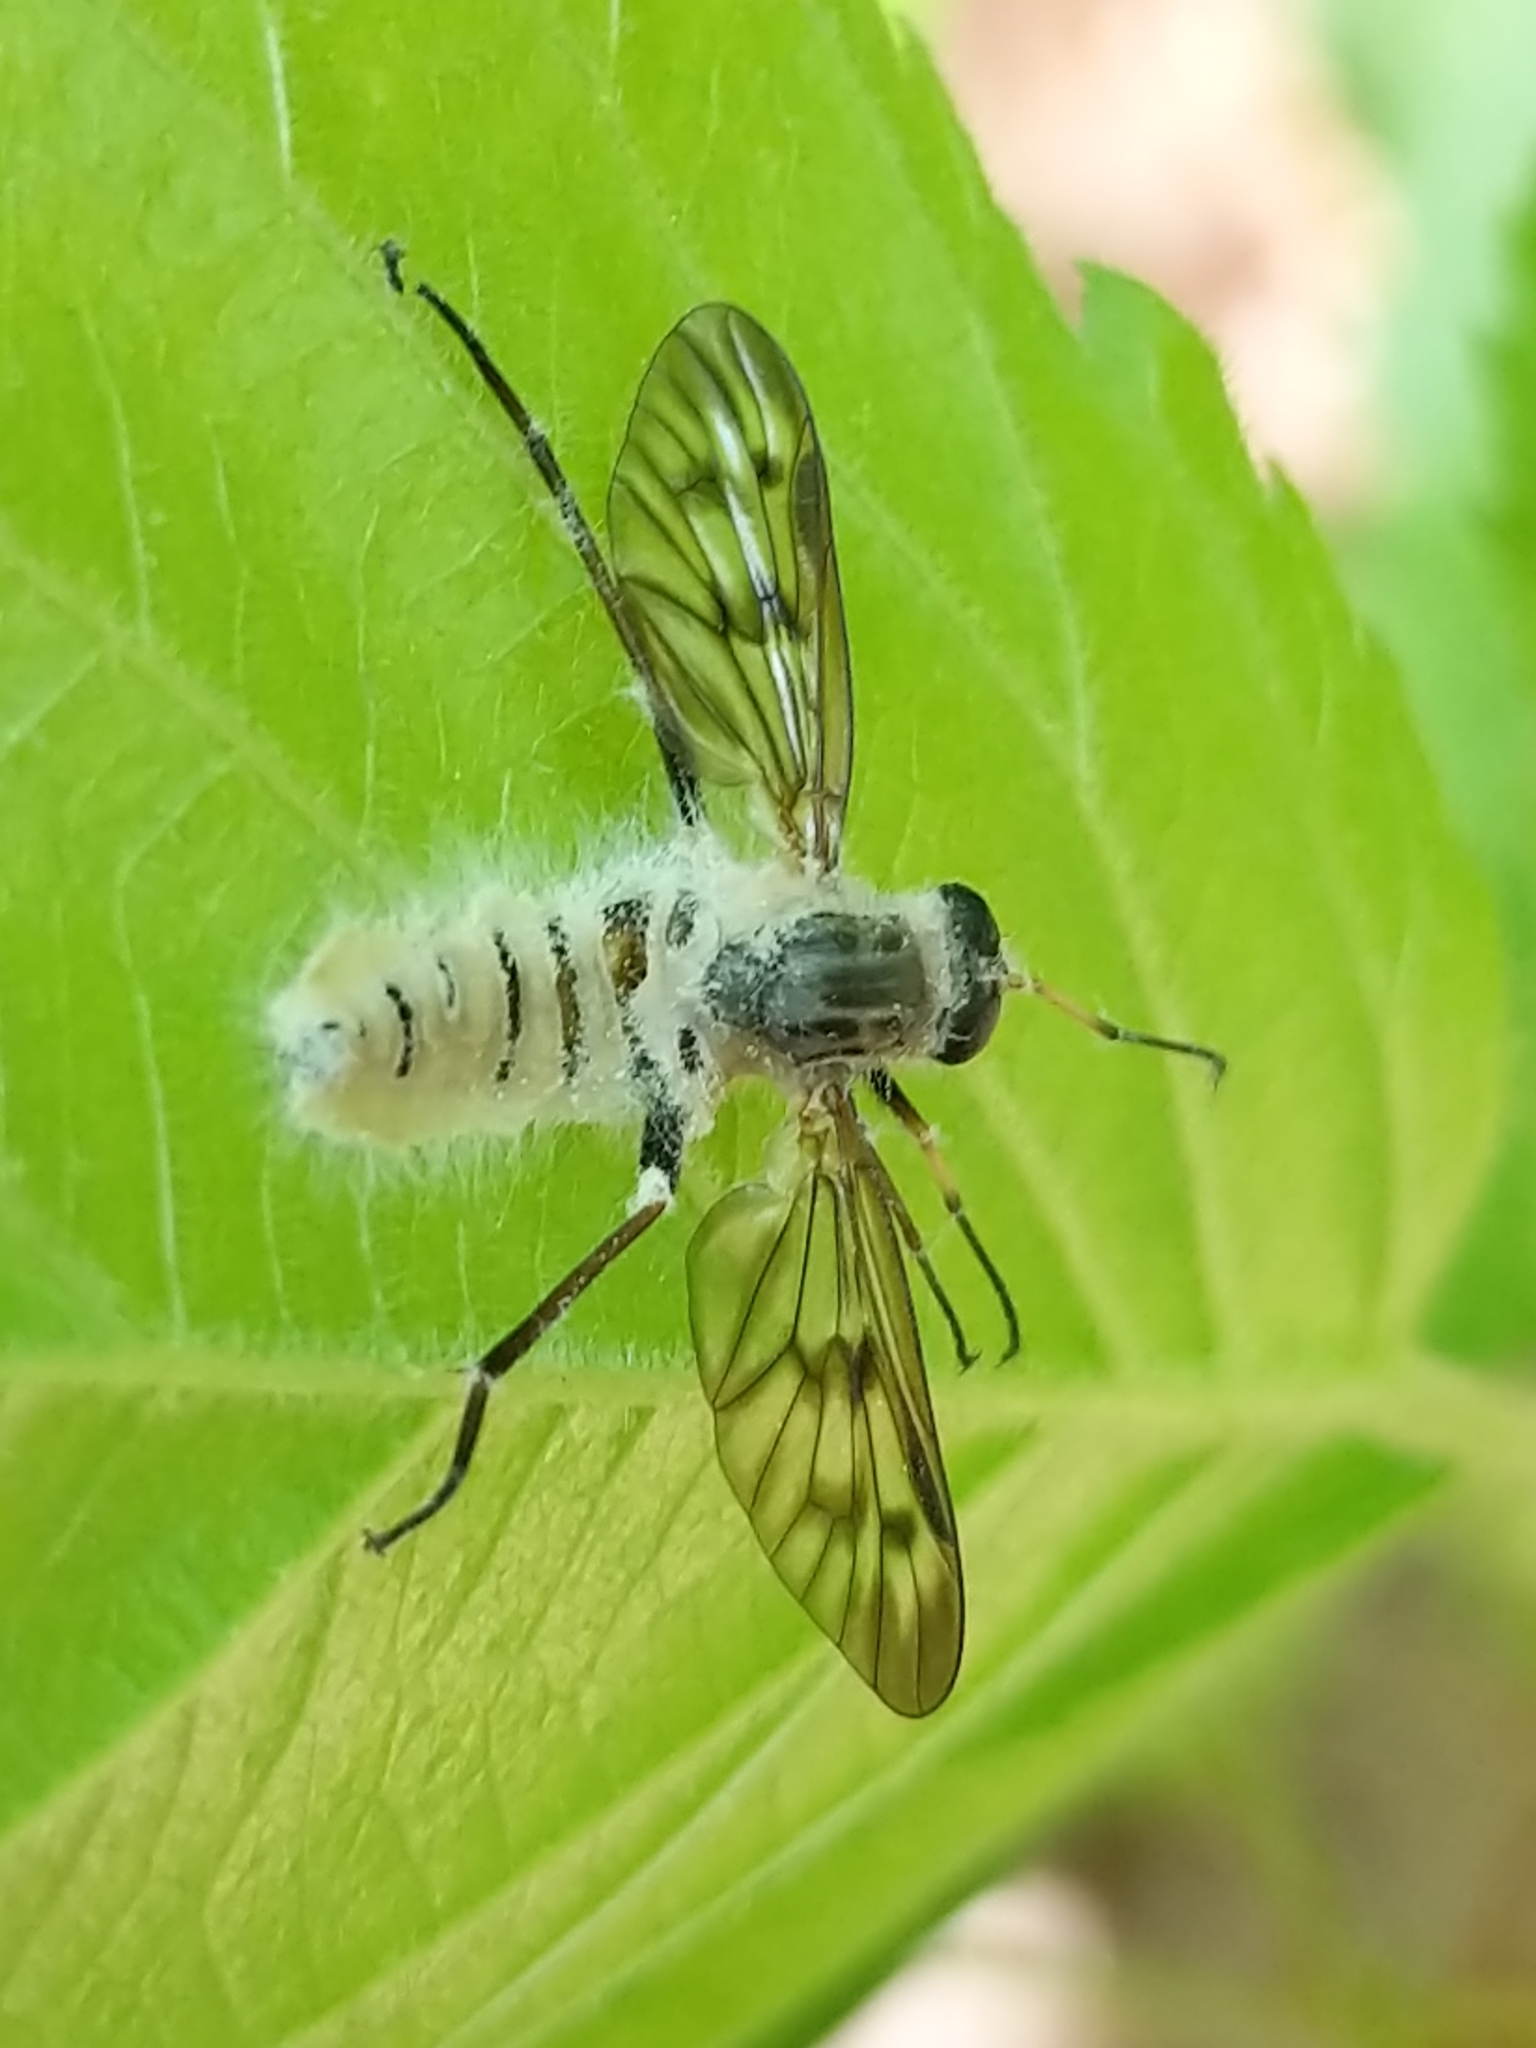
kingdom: Animalia
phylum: Arthropoda
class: Insecta
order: Diptera
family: Rhagionidae
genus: Rhagio
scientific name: Rhagio mystaceus
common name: Common snipe fly
